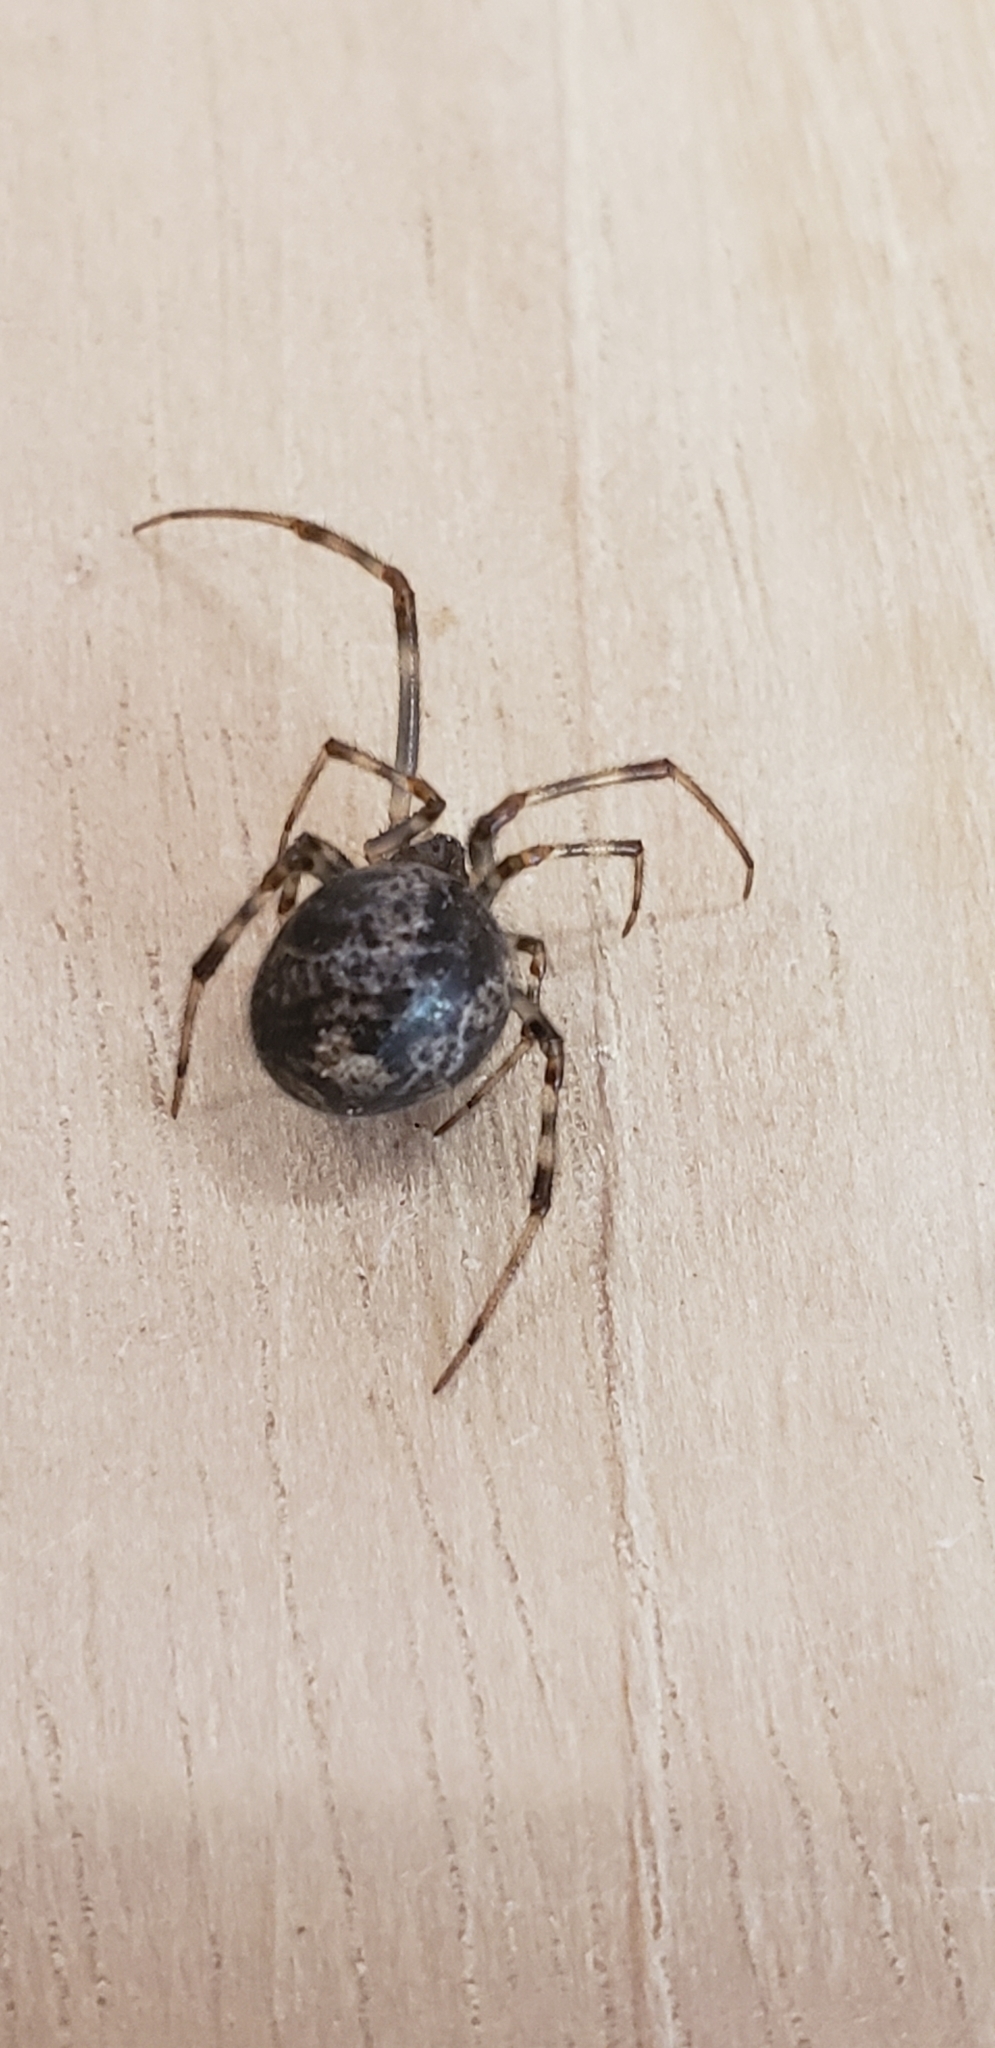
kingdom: Animalia
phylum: Arthropoda
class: Arachnida
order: Araneae
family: Theridiidae
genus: Parasteatoda
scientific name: Parasteatoda tepidariorum
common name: Common house spider
